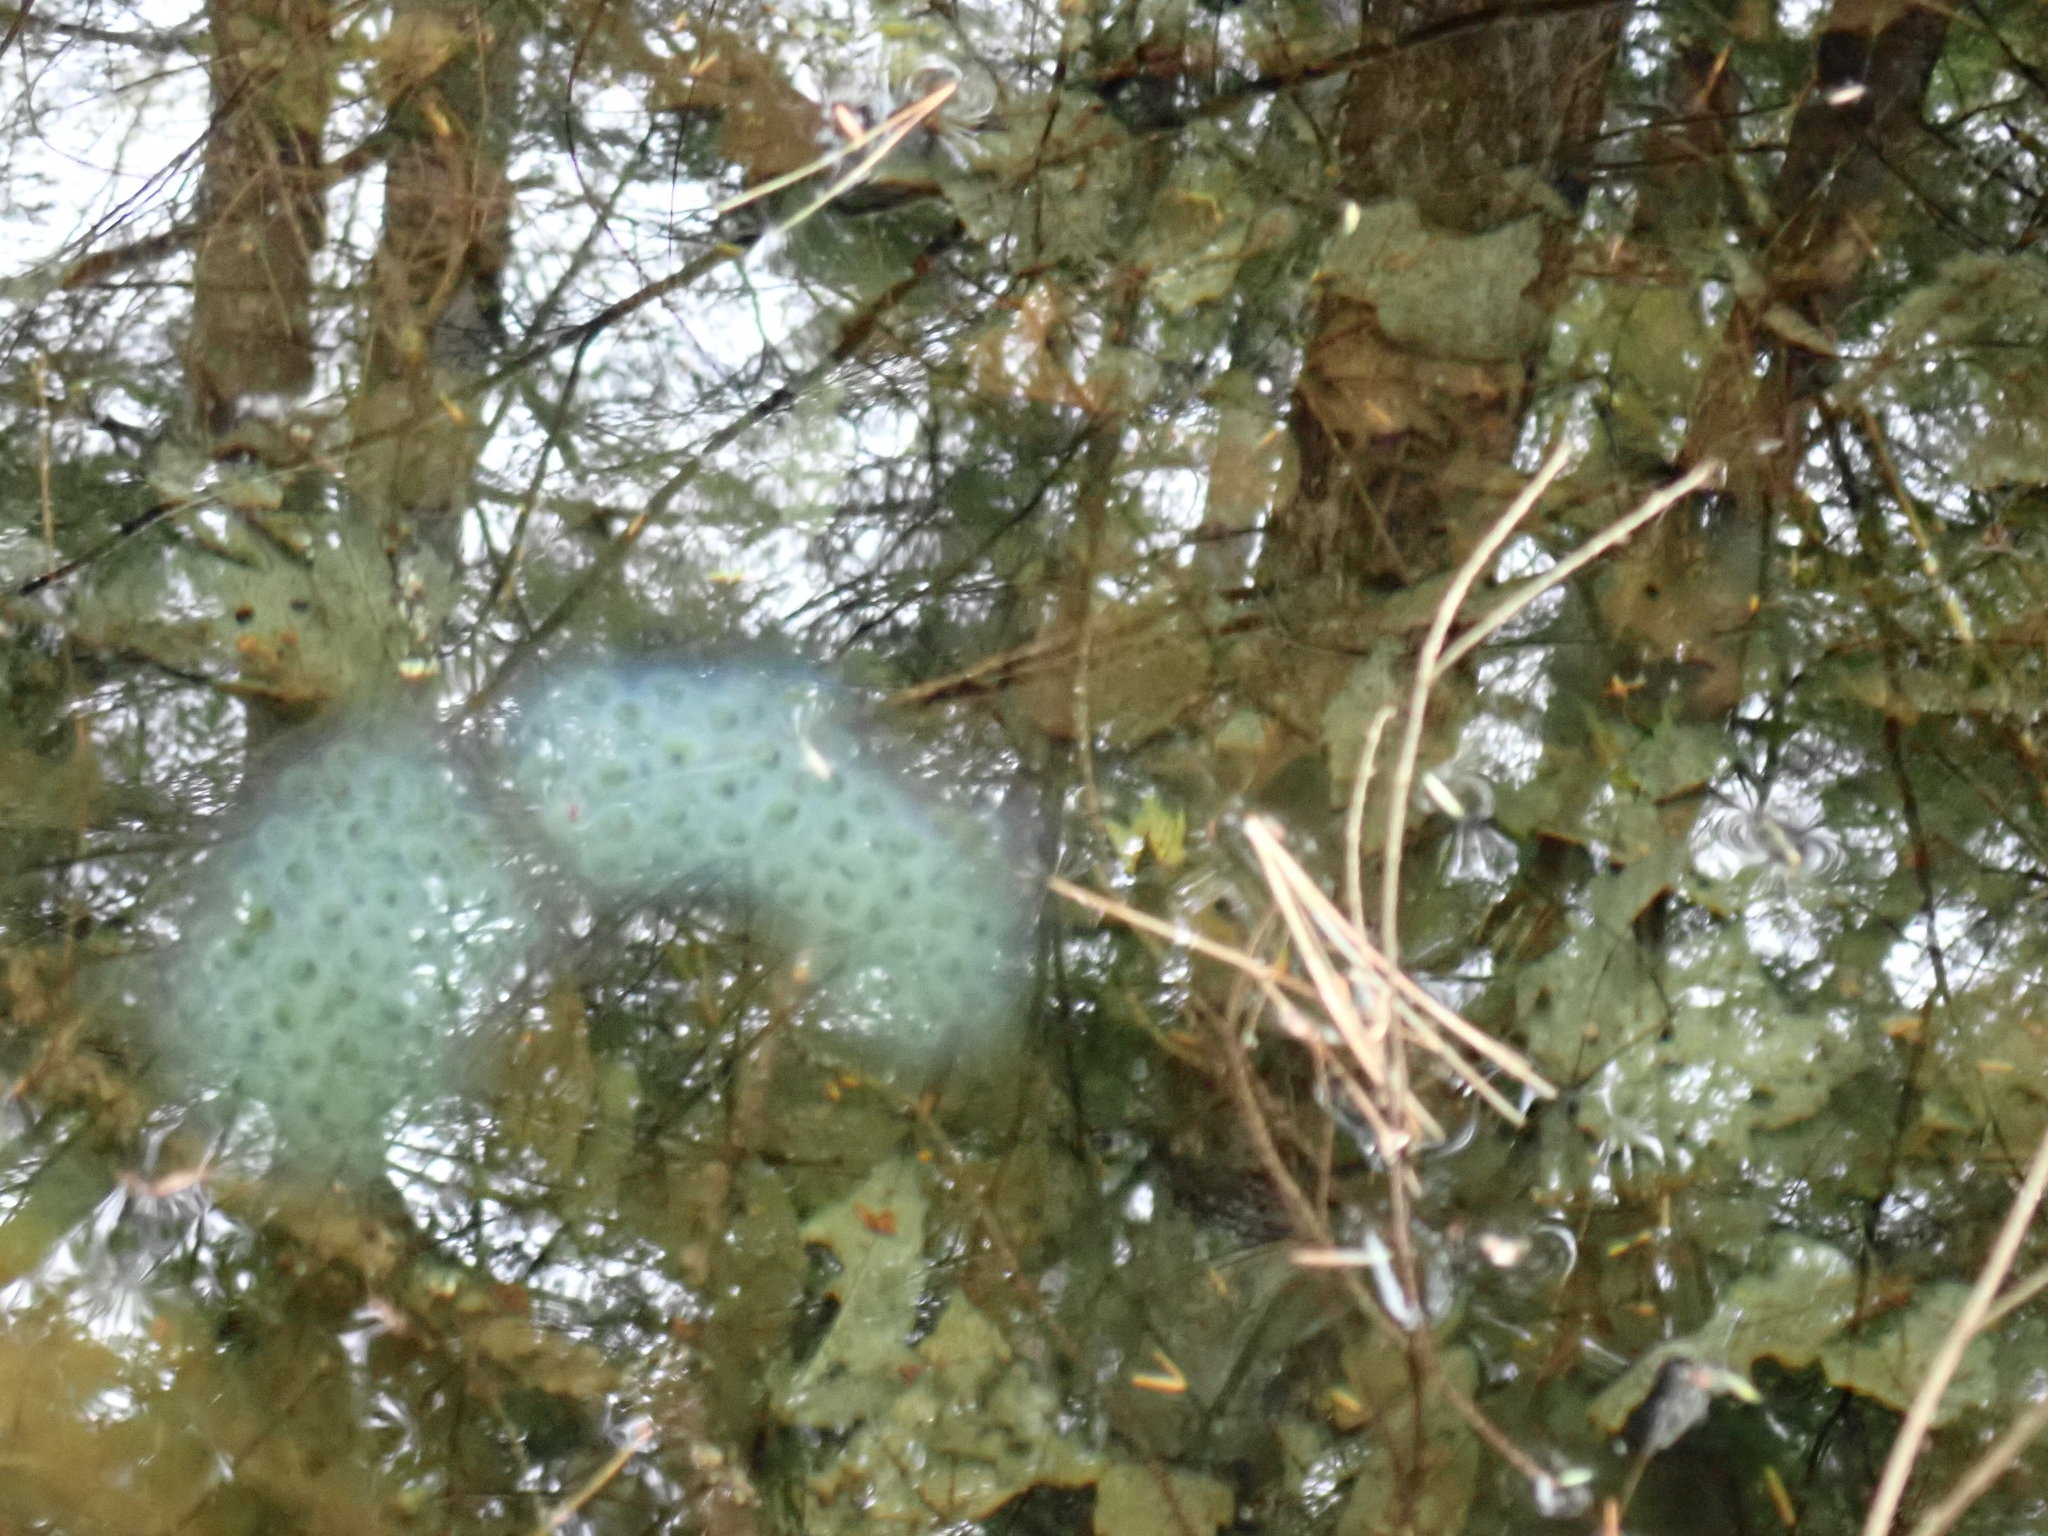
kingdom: Animalia
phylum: Chordata
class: Amphibia
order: Caudata
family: Ambystomatidae
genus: Ambystoma
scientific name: Ambystoma maculatum
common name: Spotted salamander
